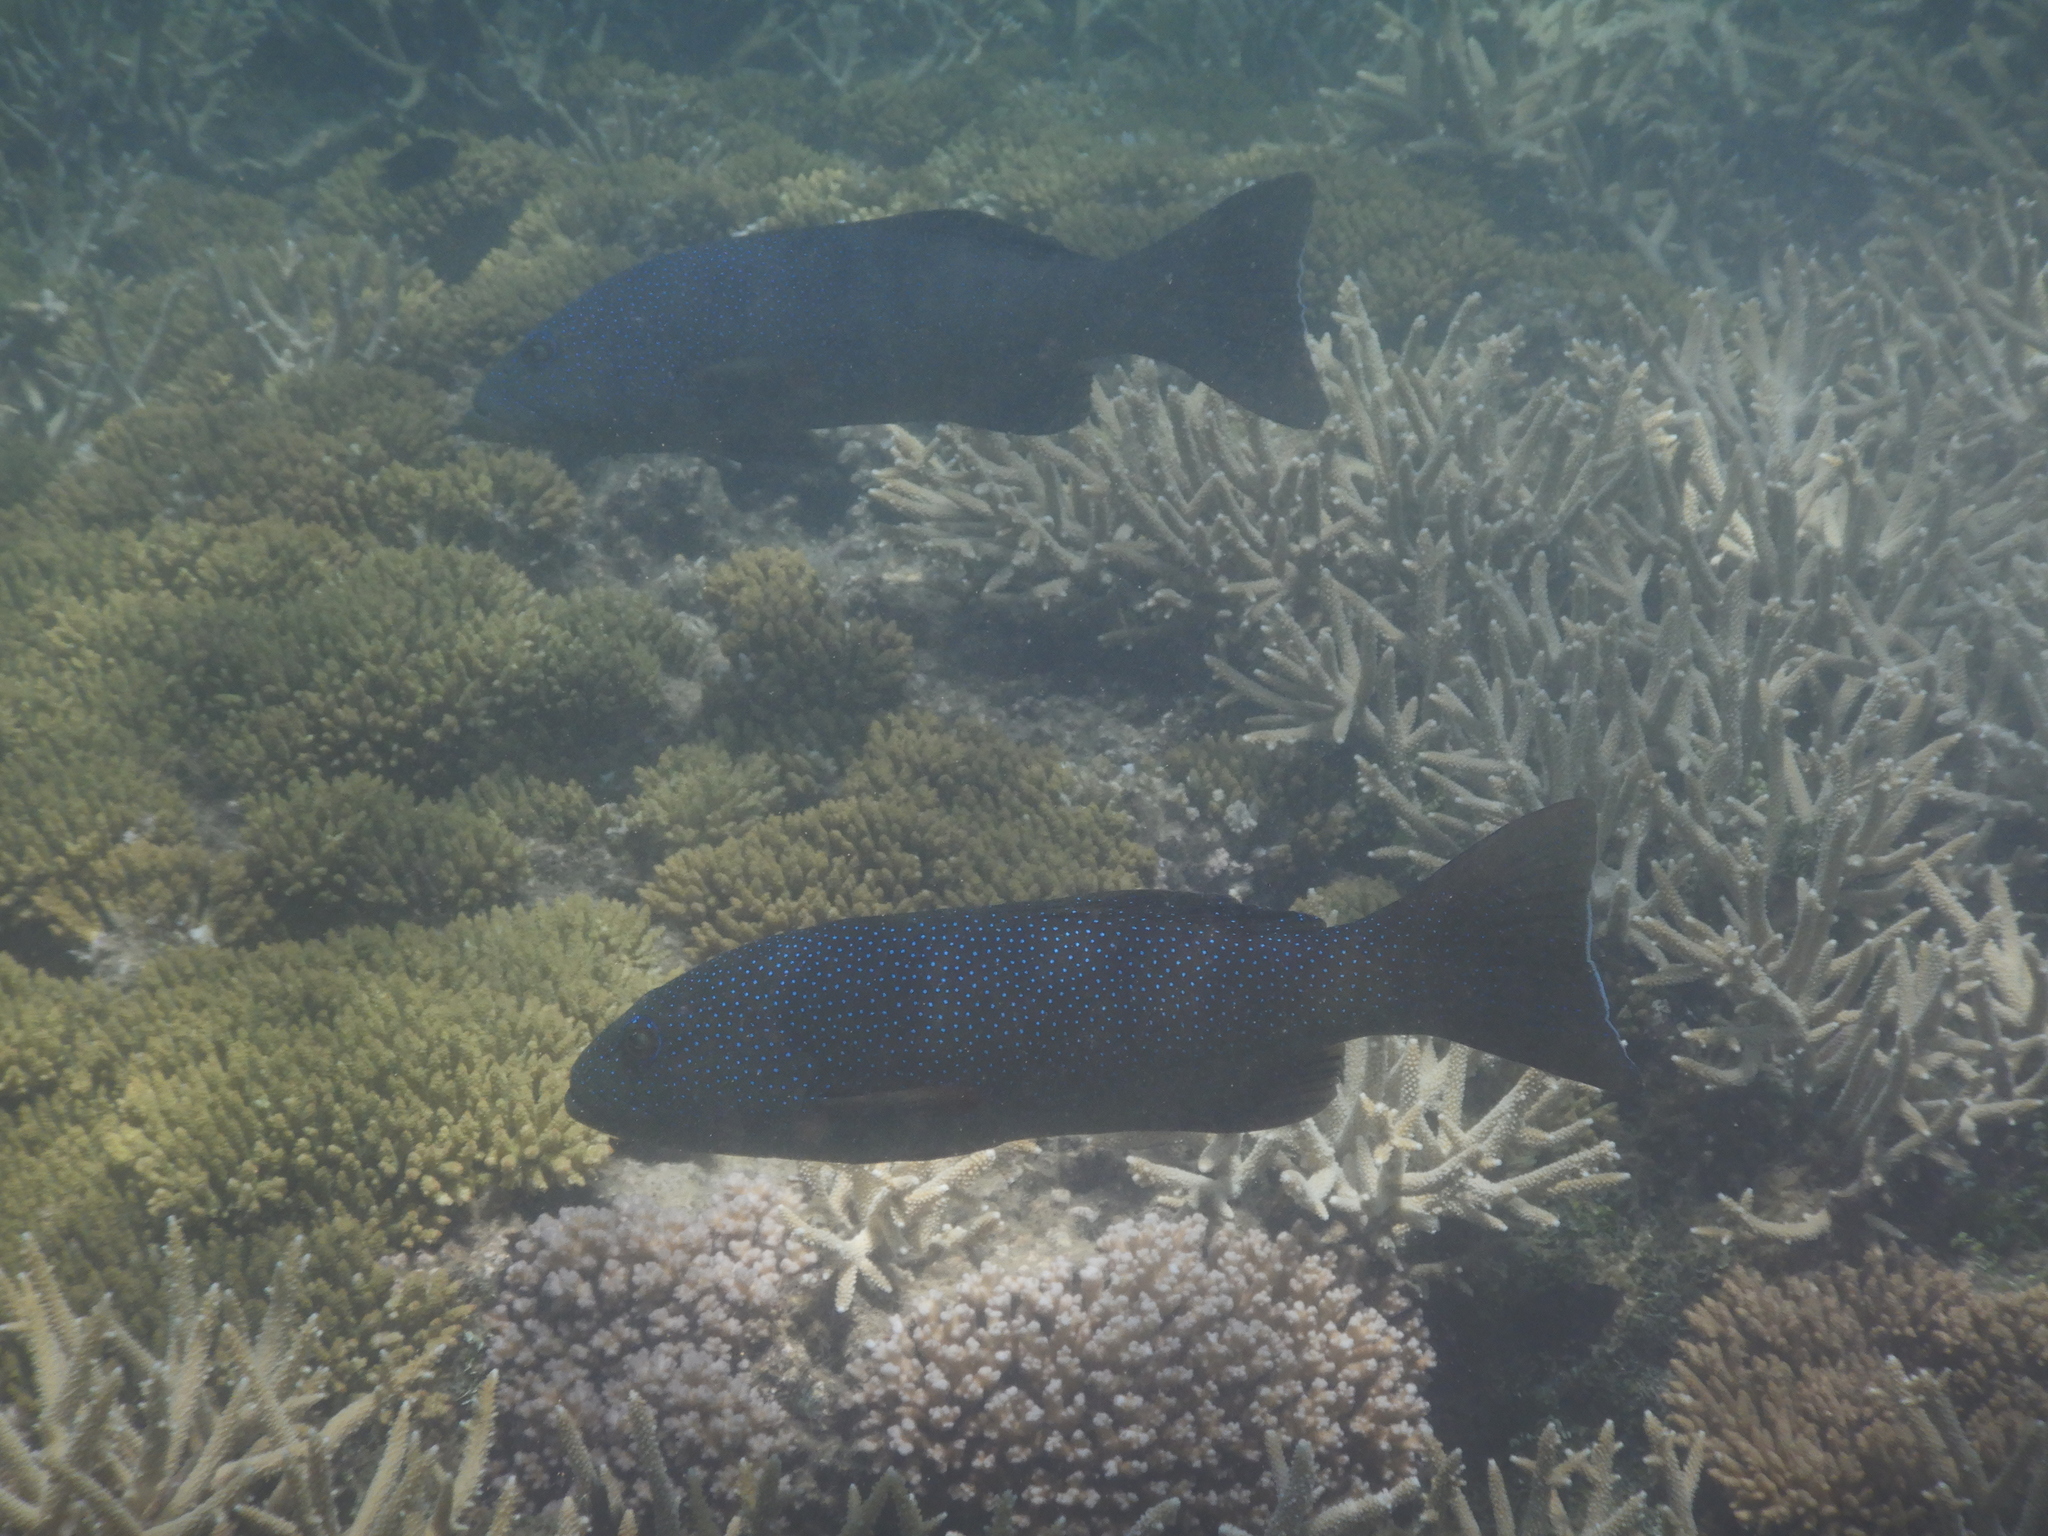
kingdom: Animalia
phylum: Chordata
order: Perciformes
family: Serranidae
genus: Plectropomus
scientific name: Plectropomus leopardus
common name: Coral trout
